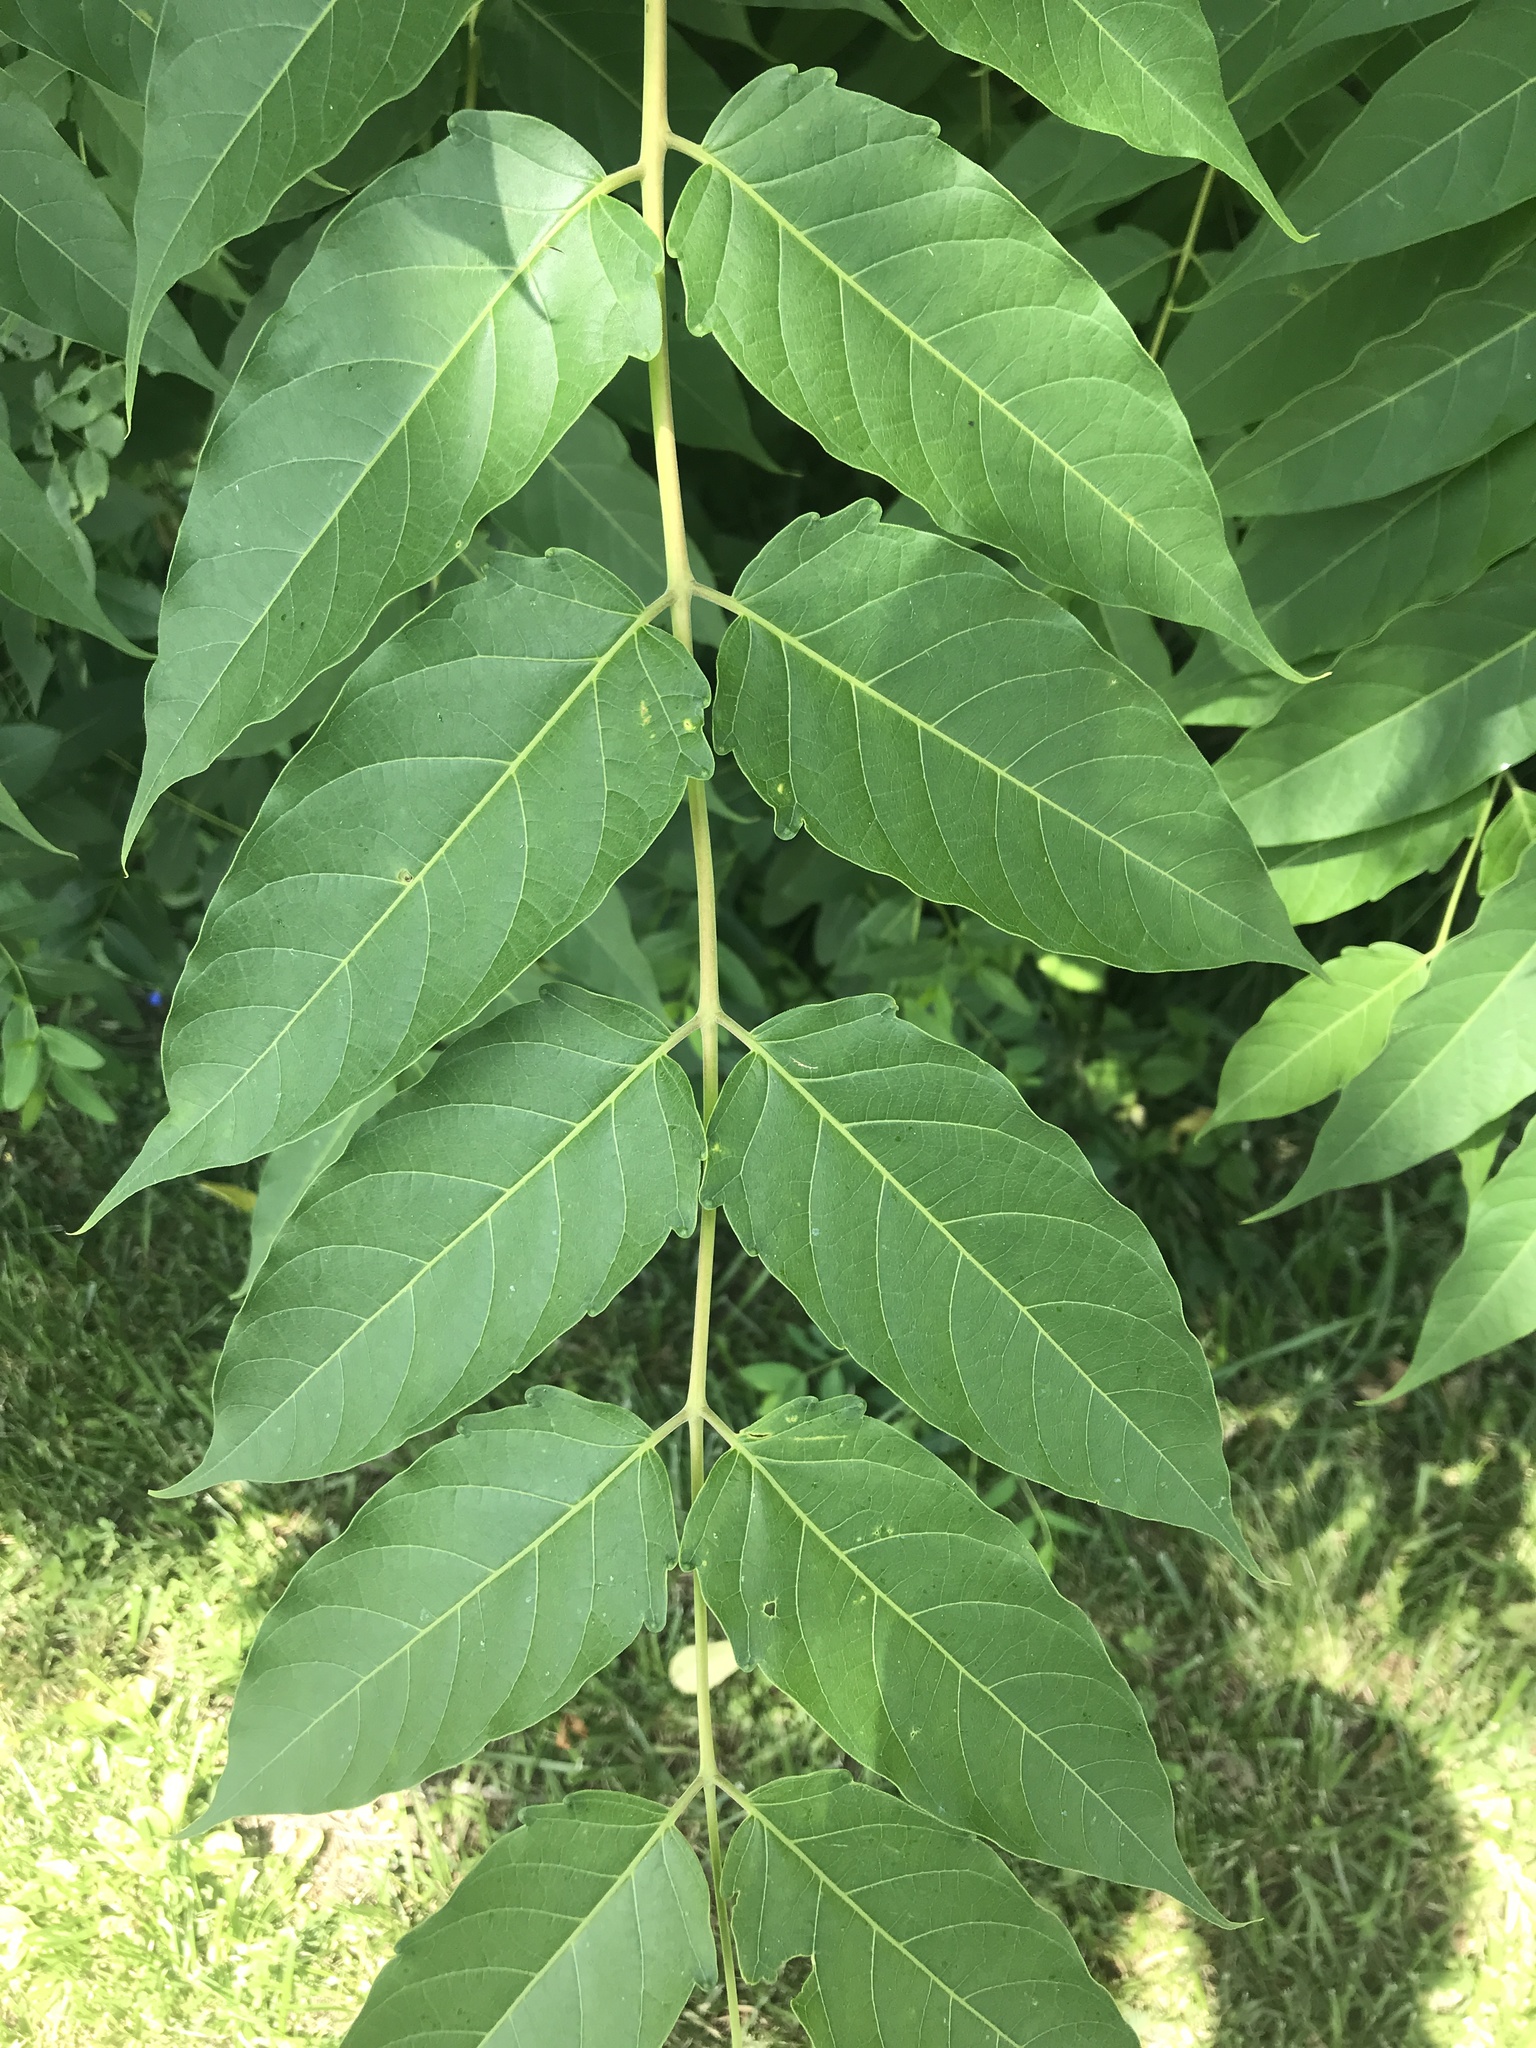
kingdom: Plantae
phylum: Tracheophyta
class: Magnoliopsida
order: Sapindales
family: Simaroubaceae
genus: Ailanthus
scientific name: Ailanthus altissima
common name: Tree-of-heaven
